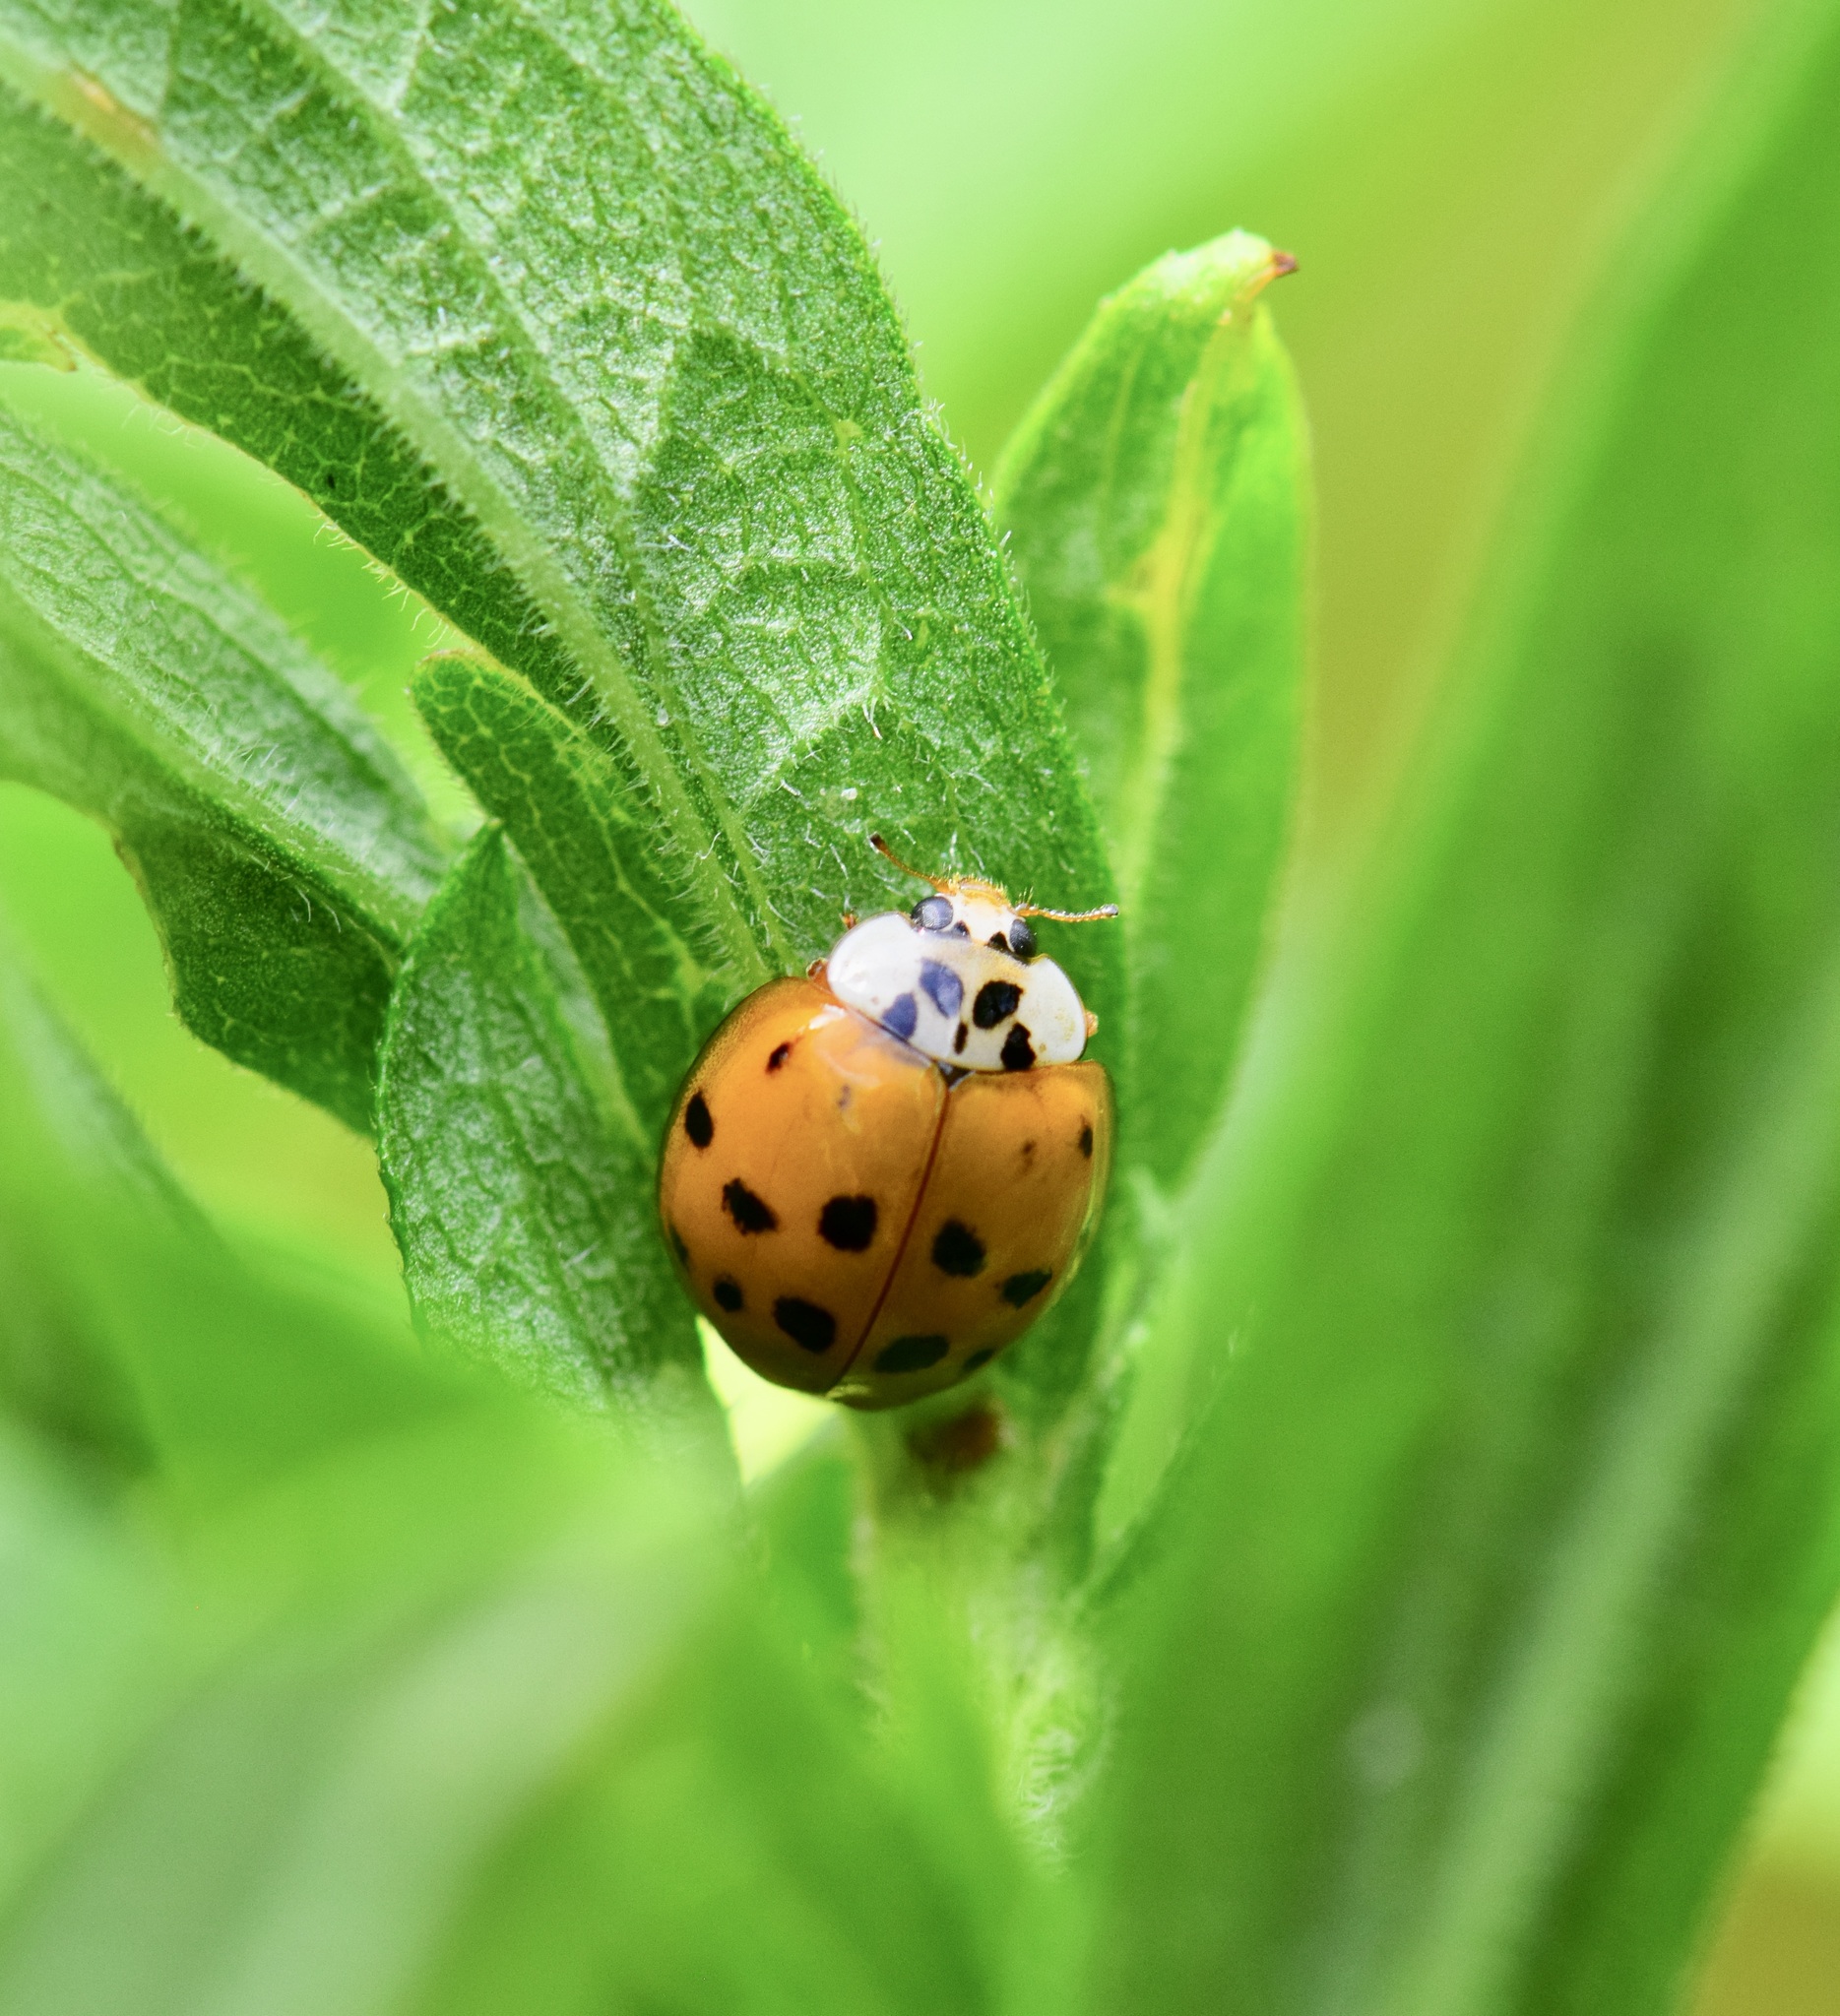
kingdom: Animalia
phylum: Arthropoda
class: Insecta
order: Coleoptera
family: Coccinellidae
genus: Harmonia
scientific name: Harmonia axyridis
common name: Harlequin ladybird
